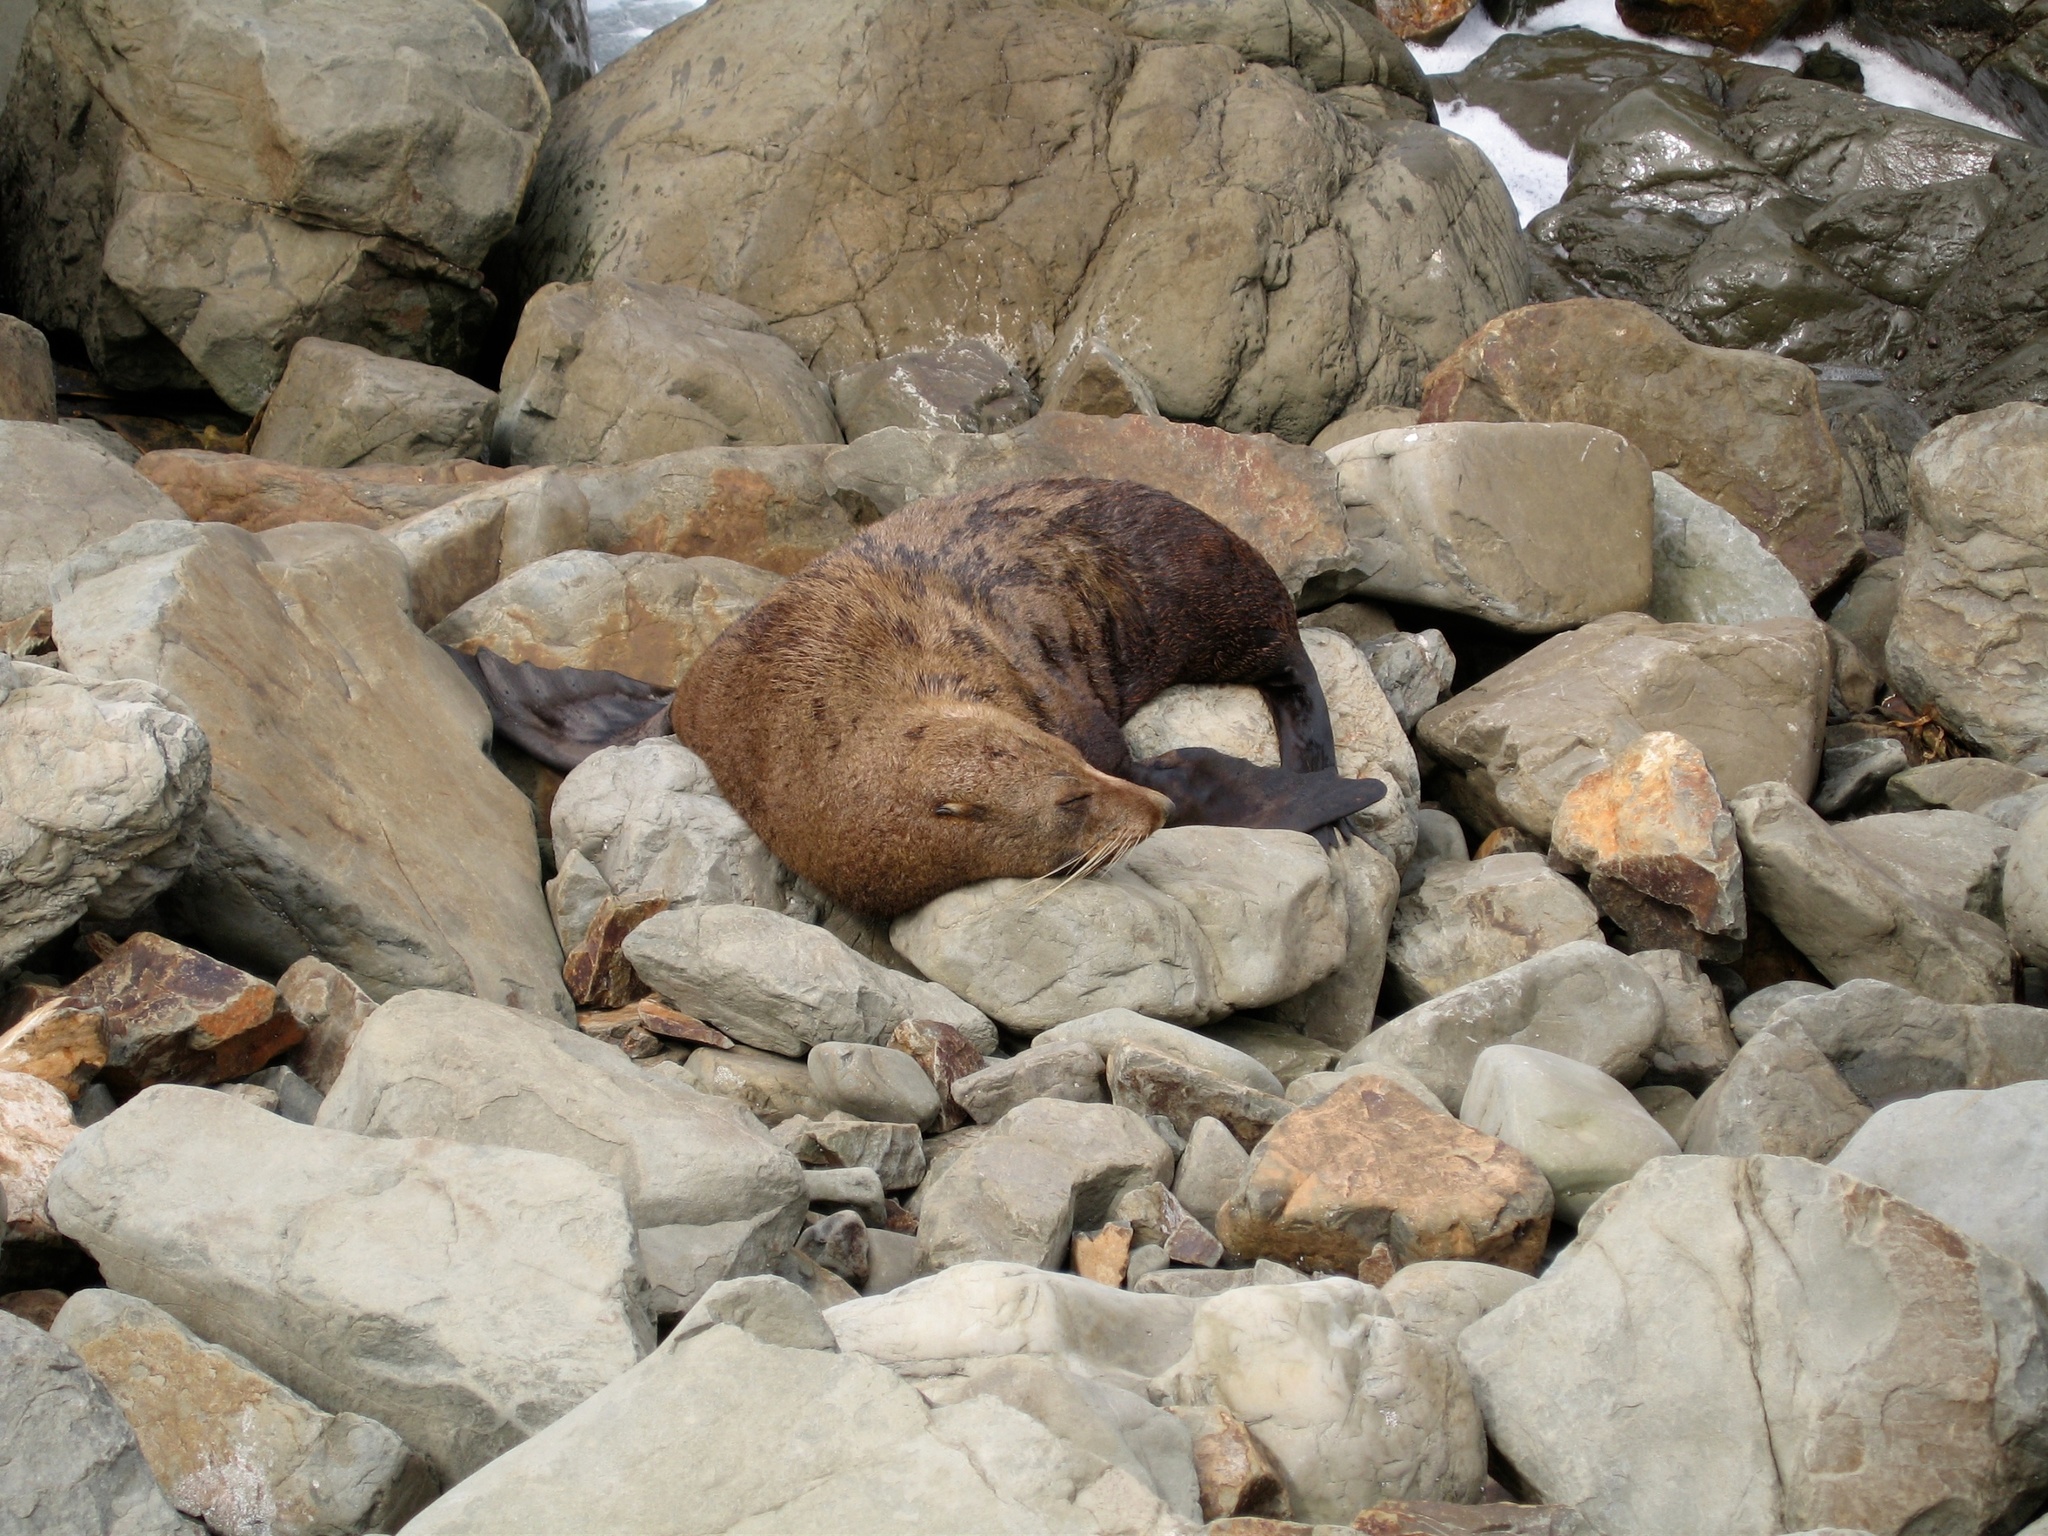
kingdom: Animalia
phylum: Chordata
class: Mammalia
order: Carnivora
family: Otariidae
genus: Arctocephalus
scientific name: Arctocephalus forsteri
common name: New zealand fur seal
